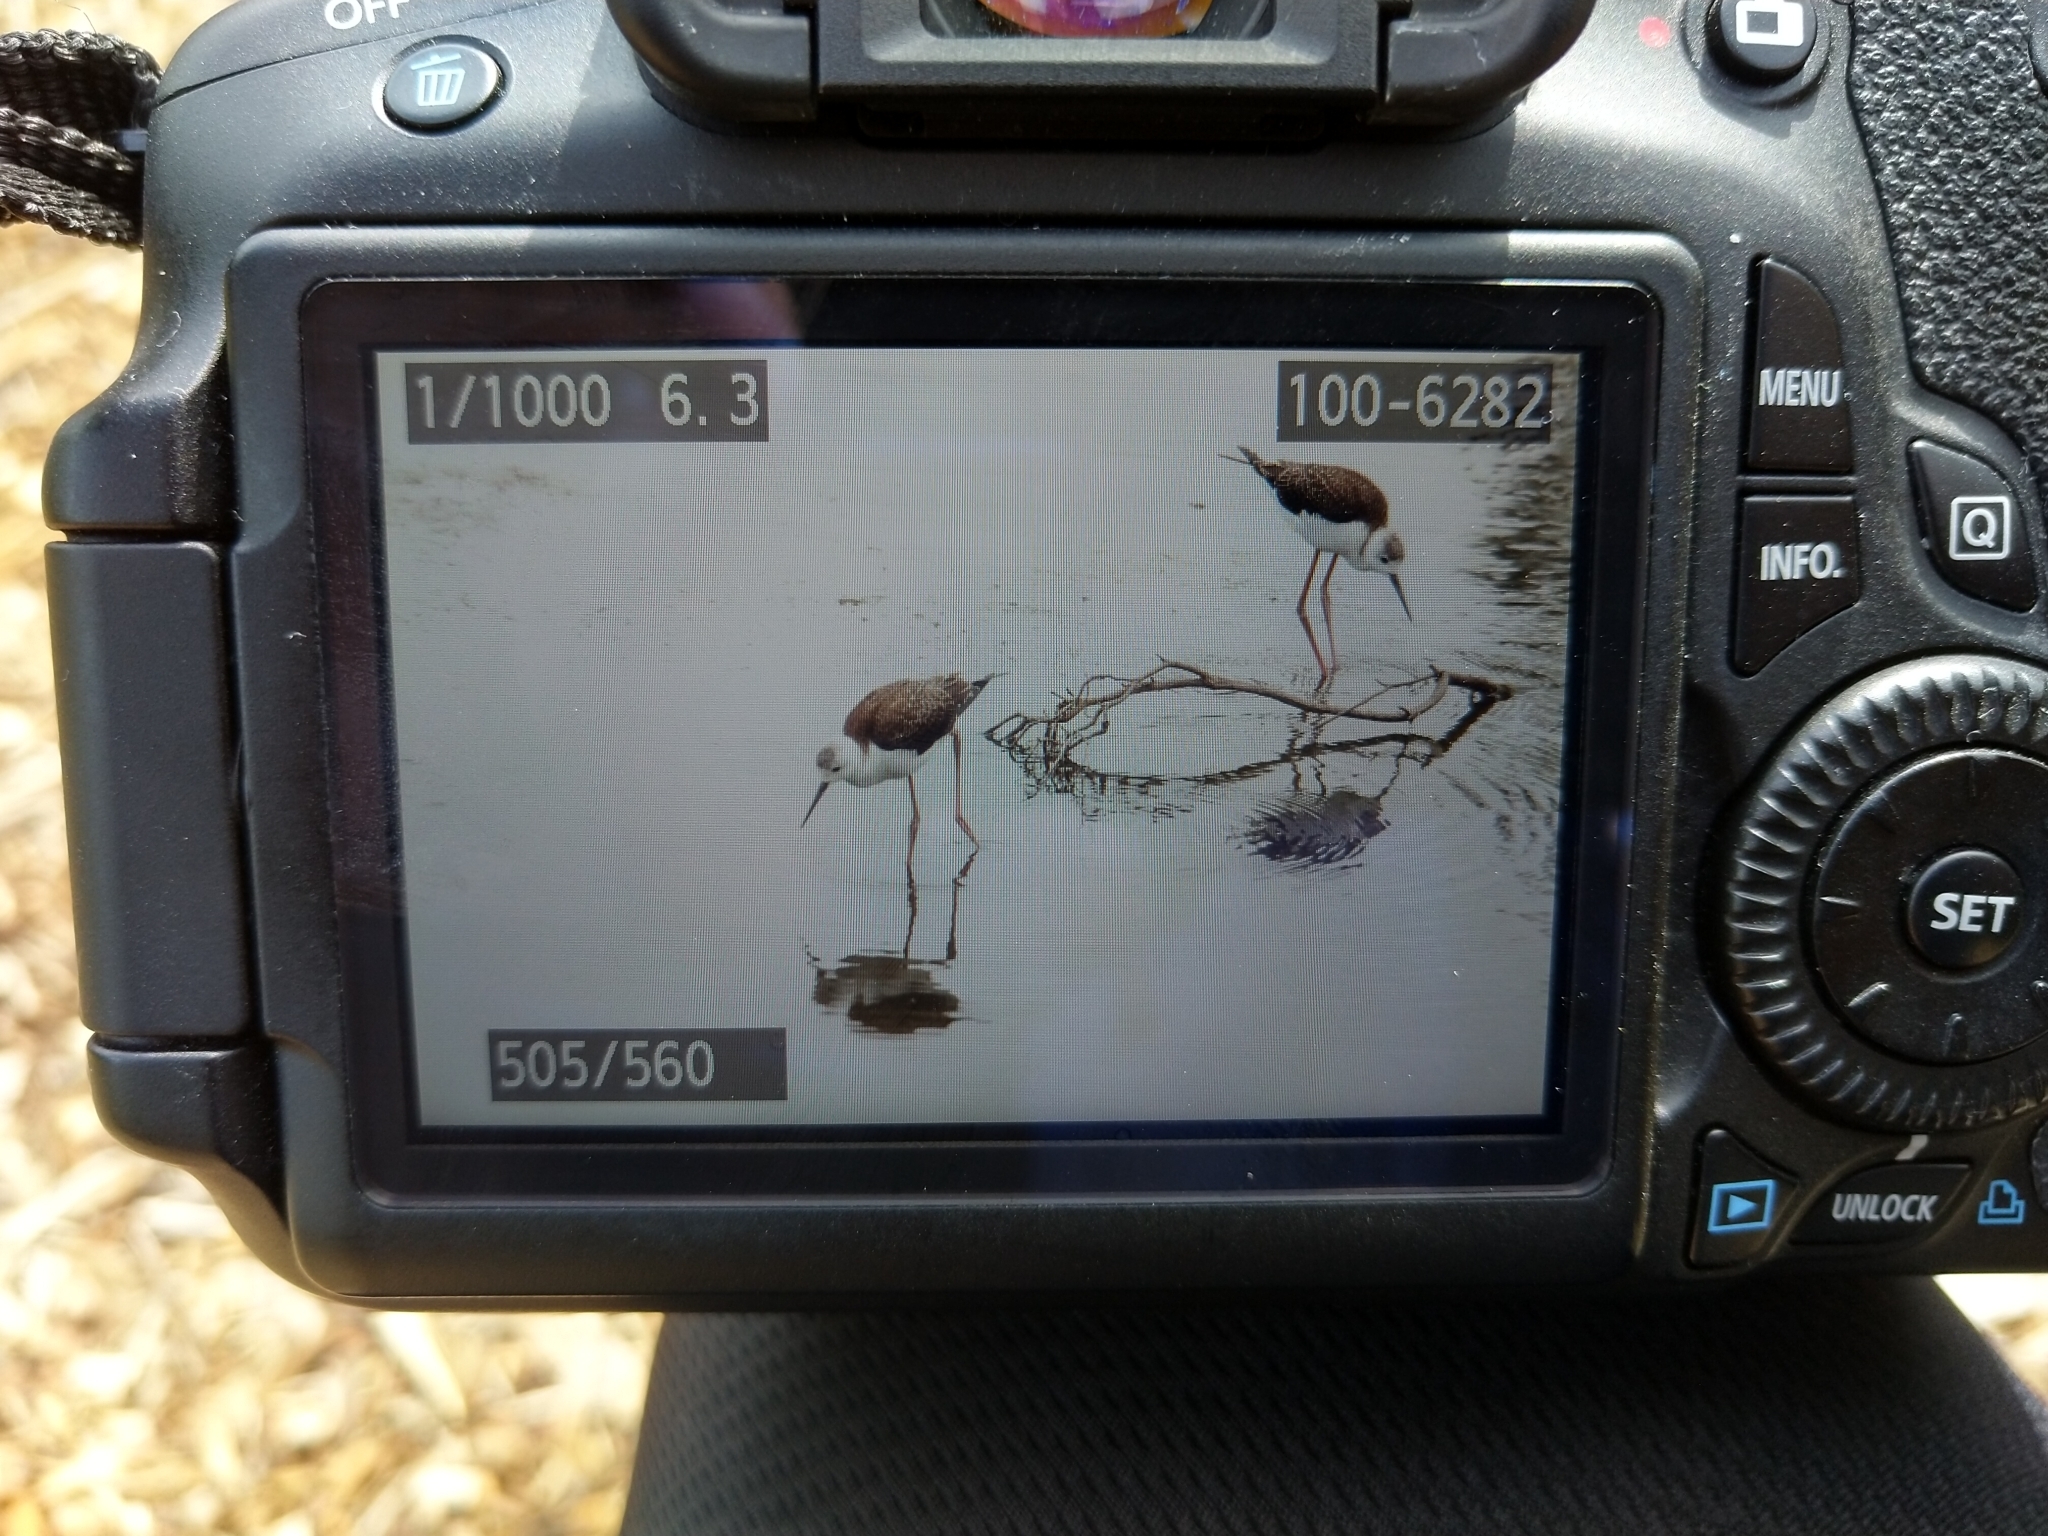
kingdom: Animalia
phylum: Chordata
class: Aves
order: Charadriiformes
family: Recurvirostridae
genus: Himantopus
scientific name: Himantopus leucocephalus
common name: White-headed stilt
